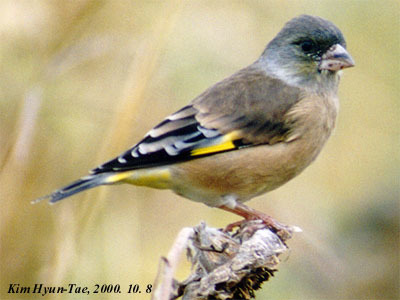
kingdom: Plantae
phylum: Tracheophyta
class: Liliopsida
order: Poales
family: Poaceae
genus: Chloris
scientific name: Chloris sinica
